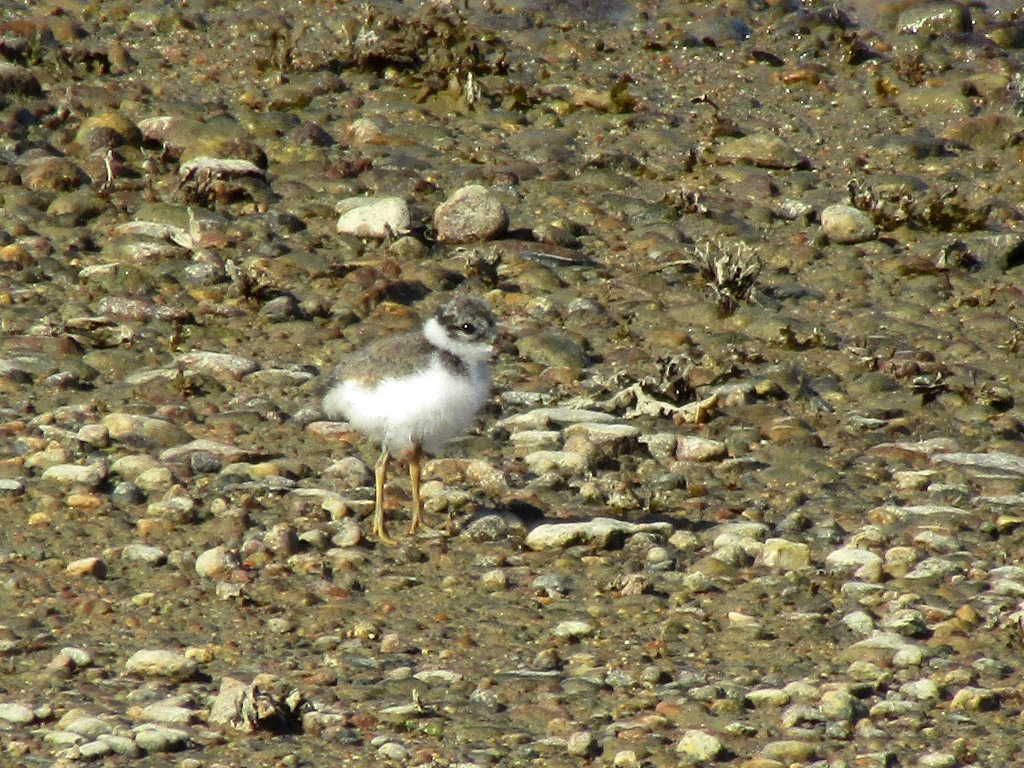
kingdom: Animalia
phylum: Chordata
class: Aves
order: Charadriiformes
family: Charadriidae
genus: Charadrius
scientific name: Charadrius hiaticula
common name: Common ringed plover
